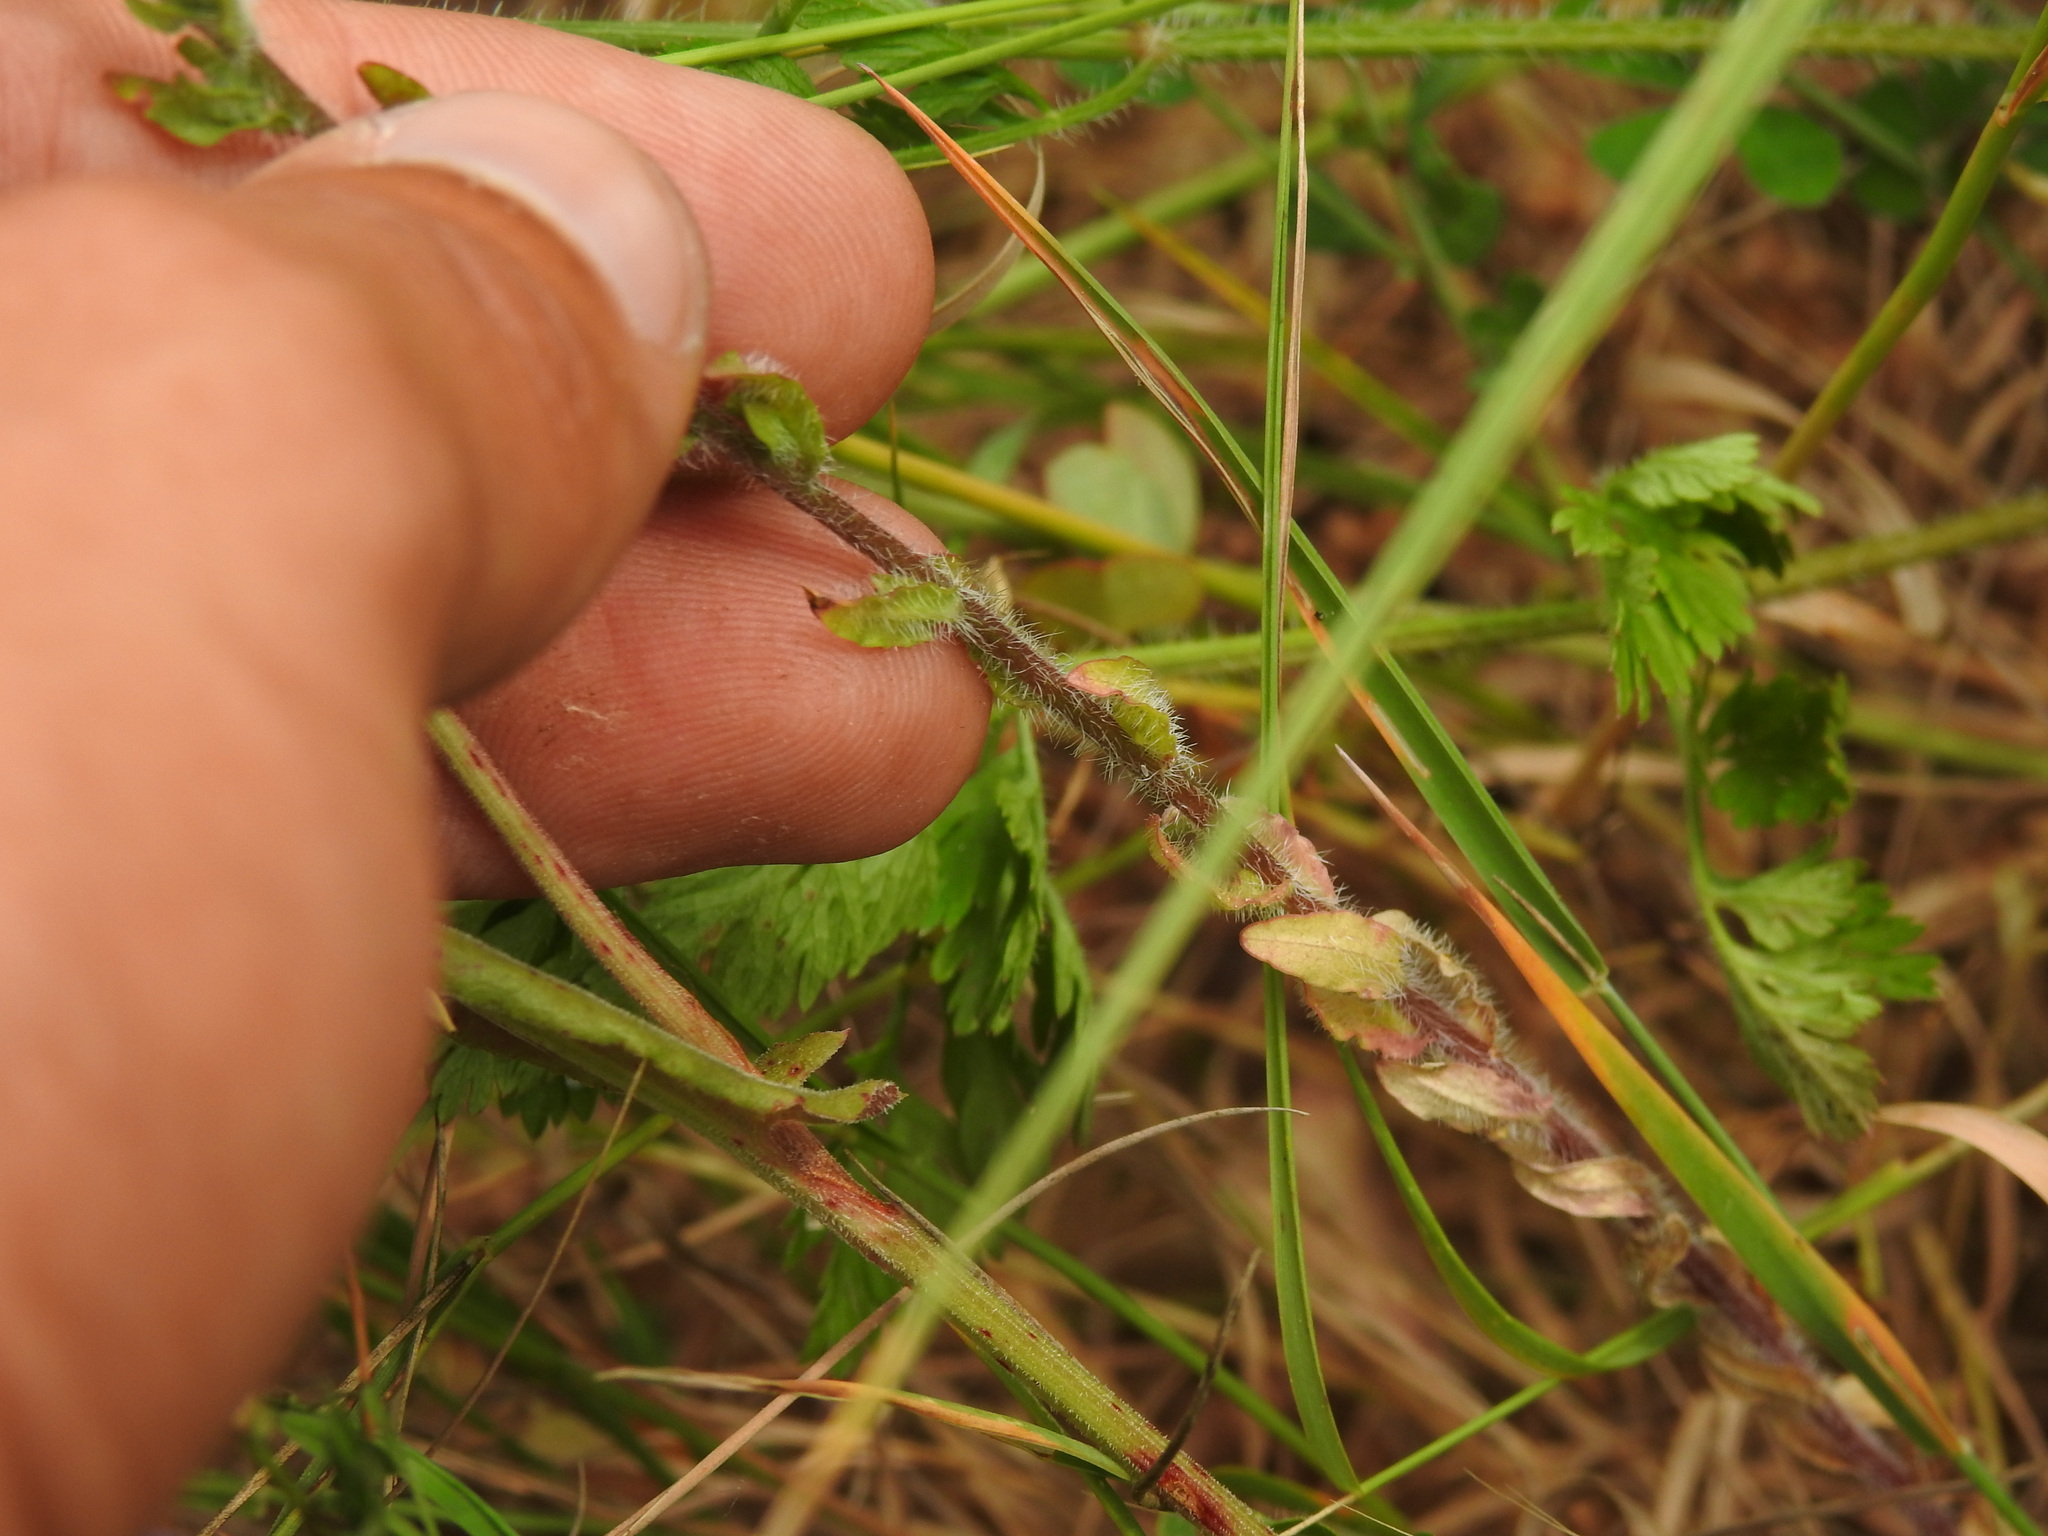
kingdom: Plantae
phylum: Tracheophyta
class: Magnoliopsida
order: Asterales
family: Campanulaceae
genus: Jasione
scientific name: Jasione montana
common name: Sheep's-bit
